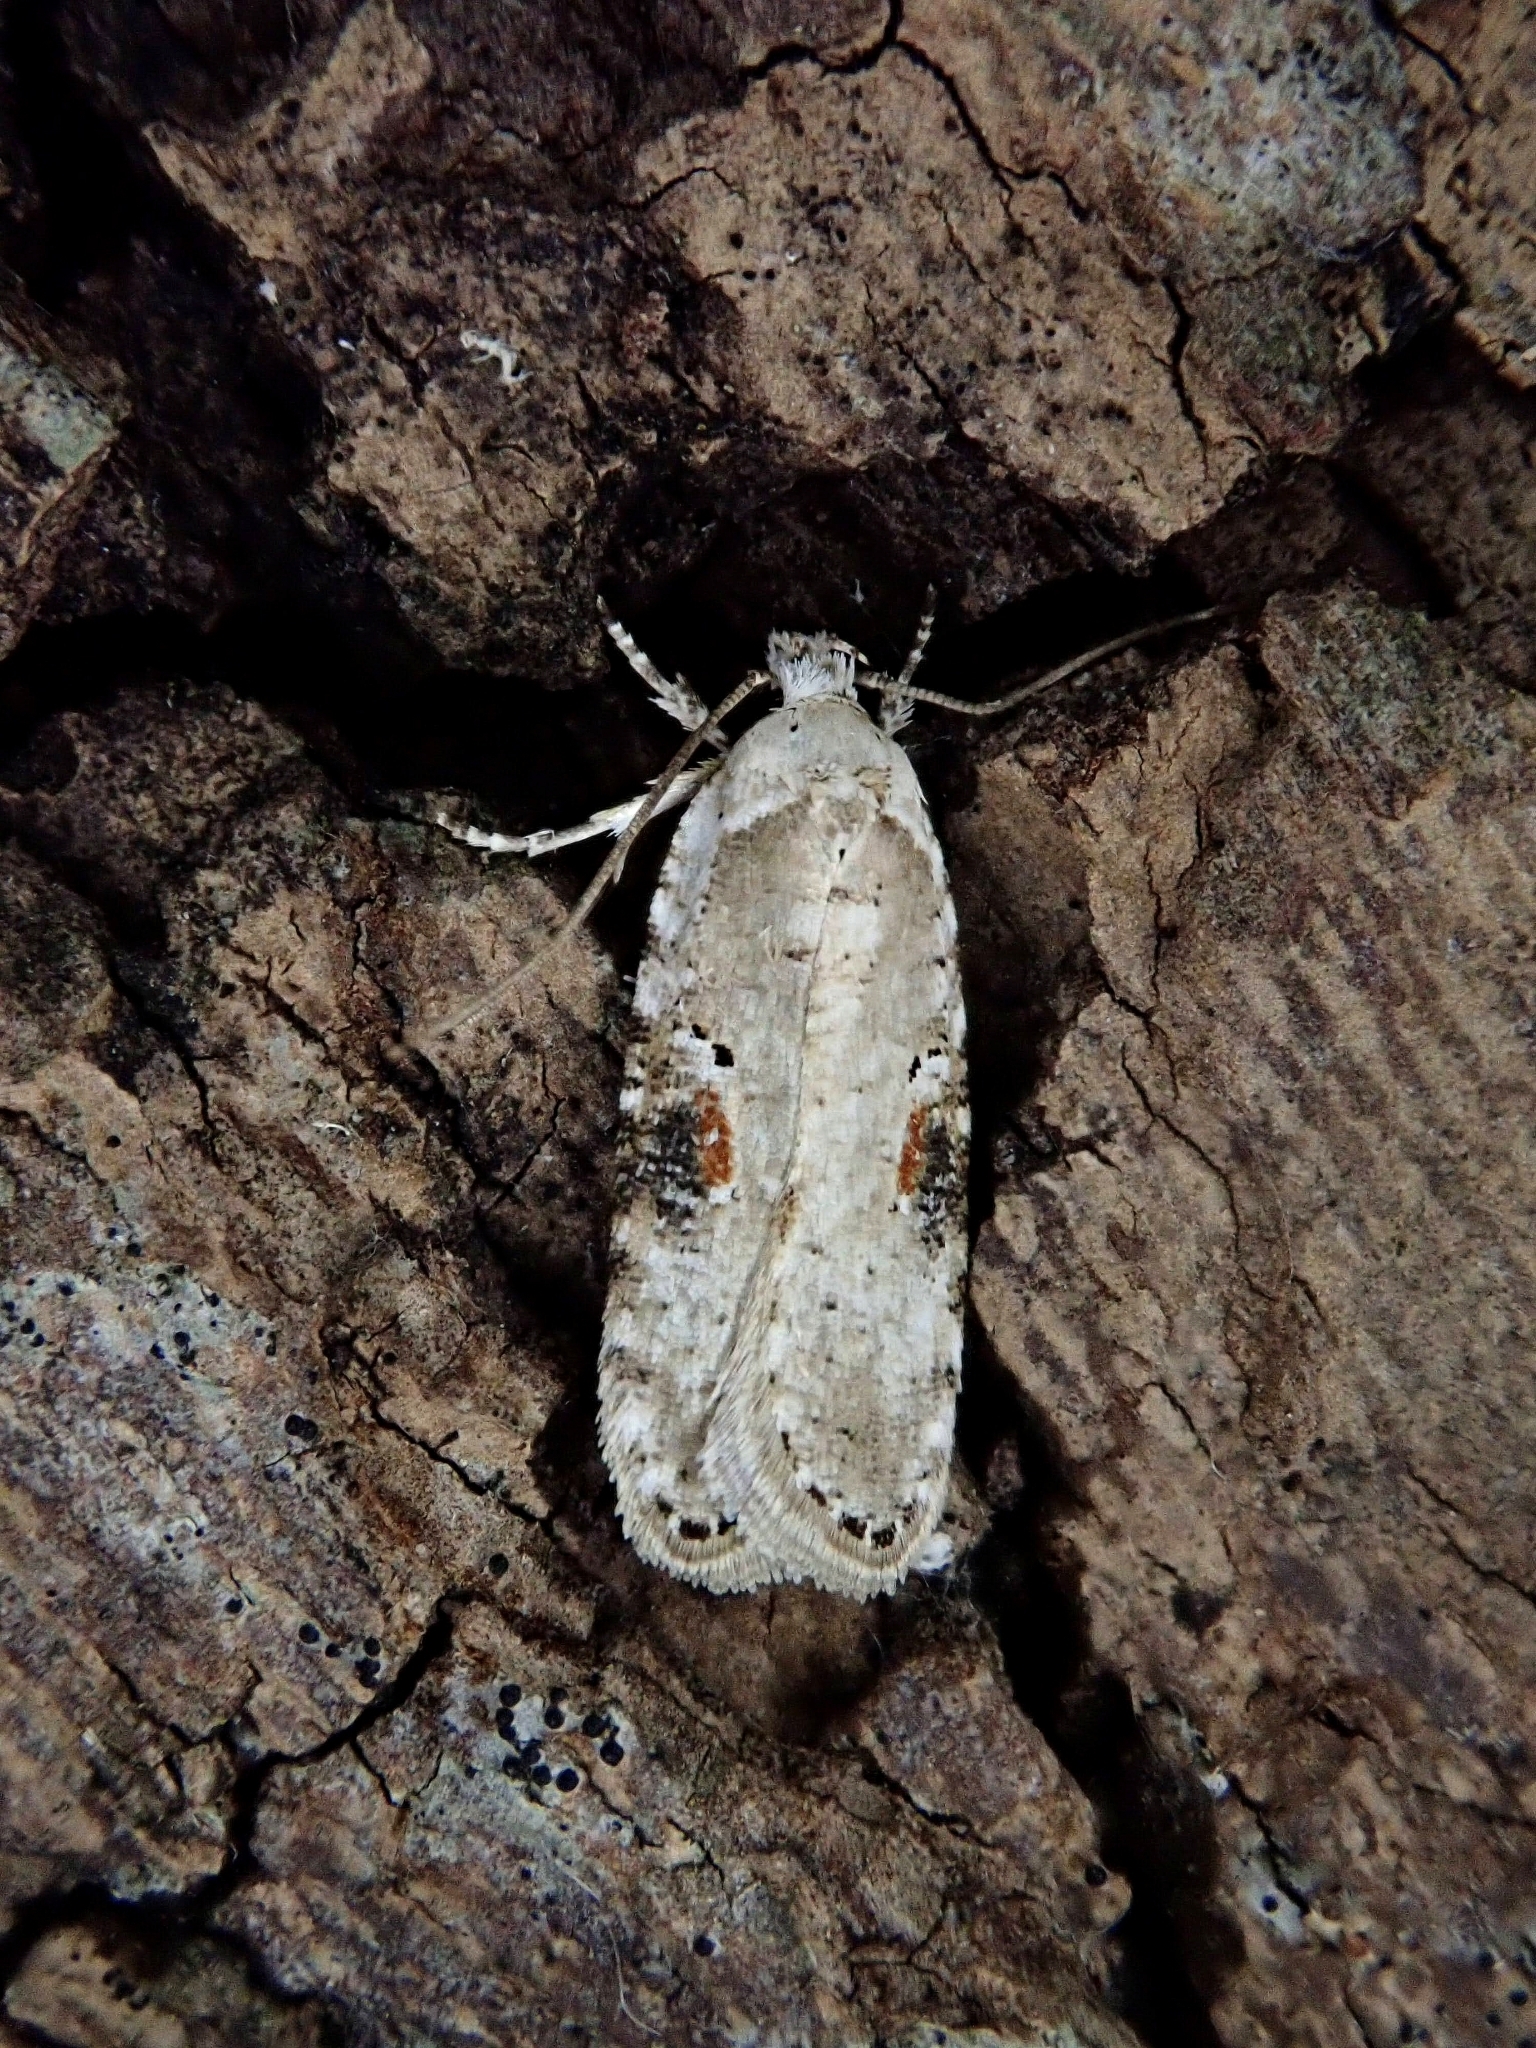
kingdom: Animalia
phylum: Arthropoda
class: Insecta
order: Lepidoptera
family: Depressariidae
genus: Agonopterix
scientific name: Agonopterix alstroemeriana
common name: Moth
